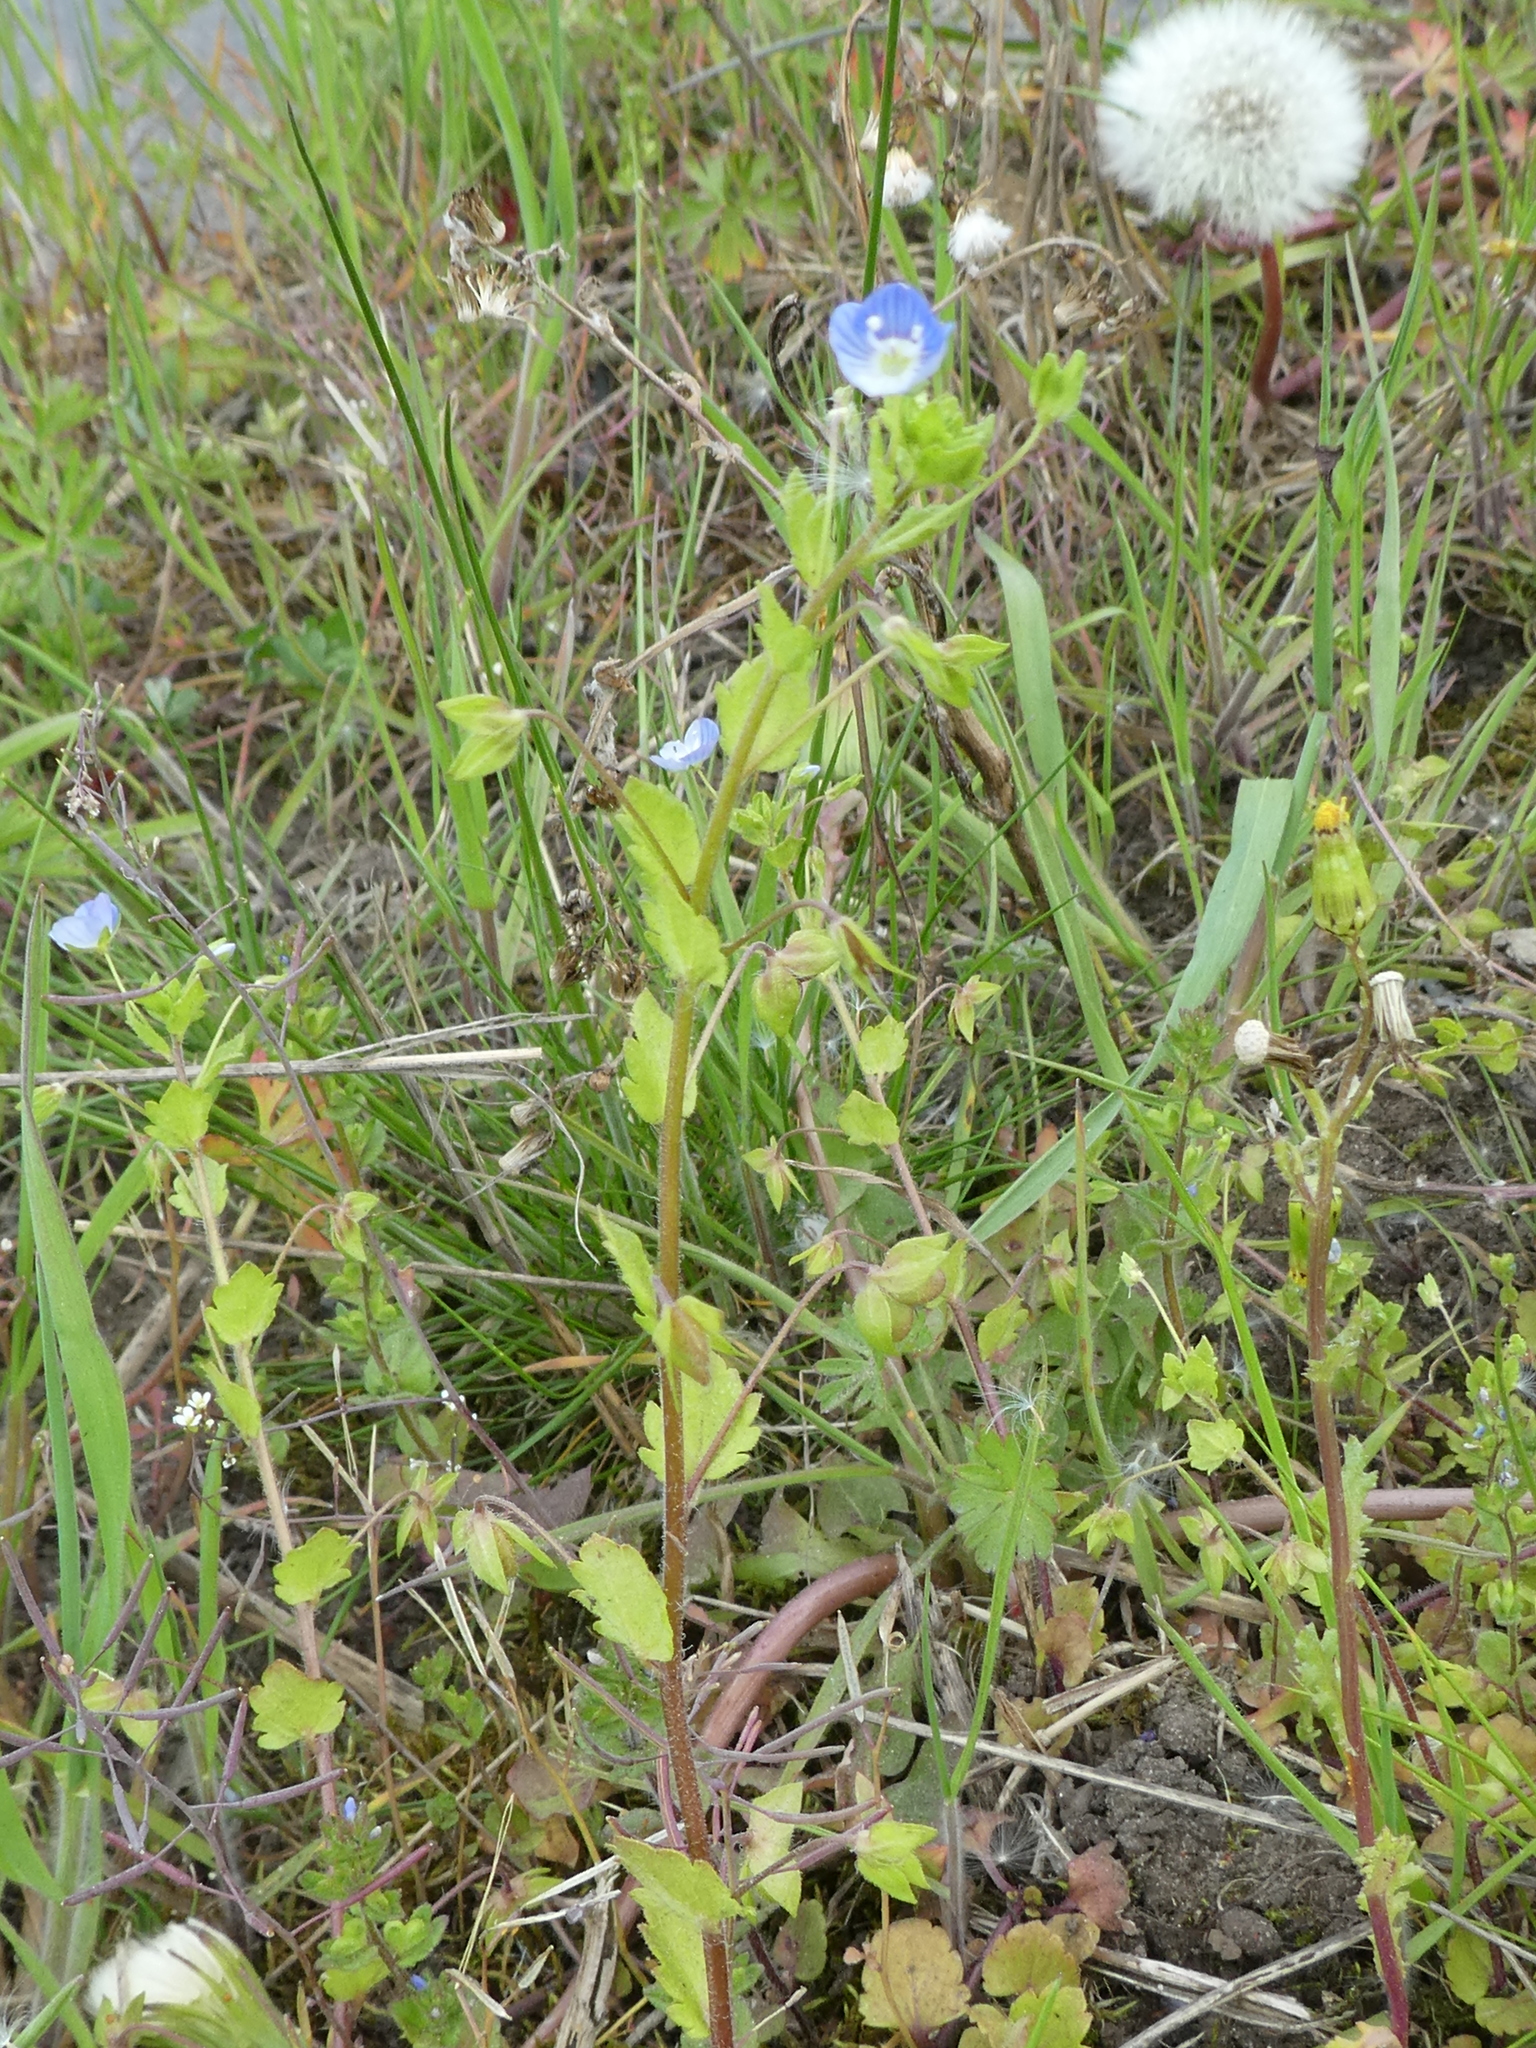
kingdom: Plantae
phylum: Tracheophyta
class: Magnoliopsida
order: Lamiales
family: Plantaginaceae
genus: Veronica
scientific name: Veronica persica
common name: Common field-speedwell
